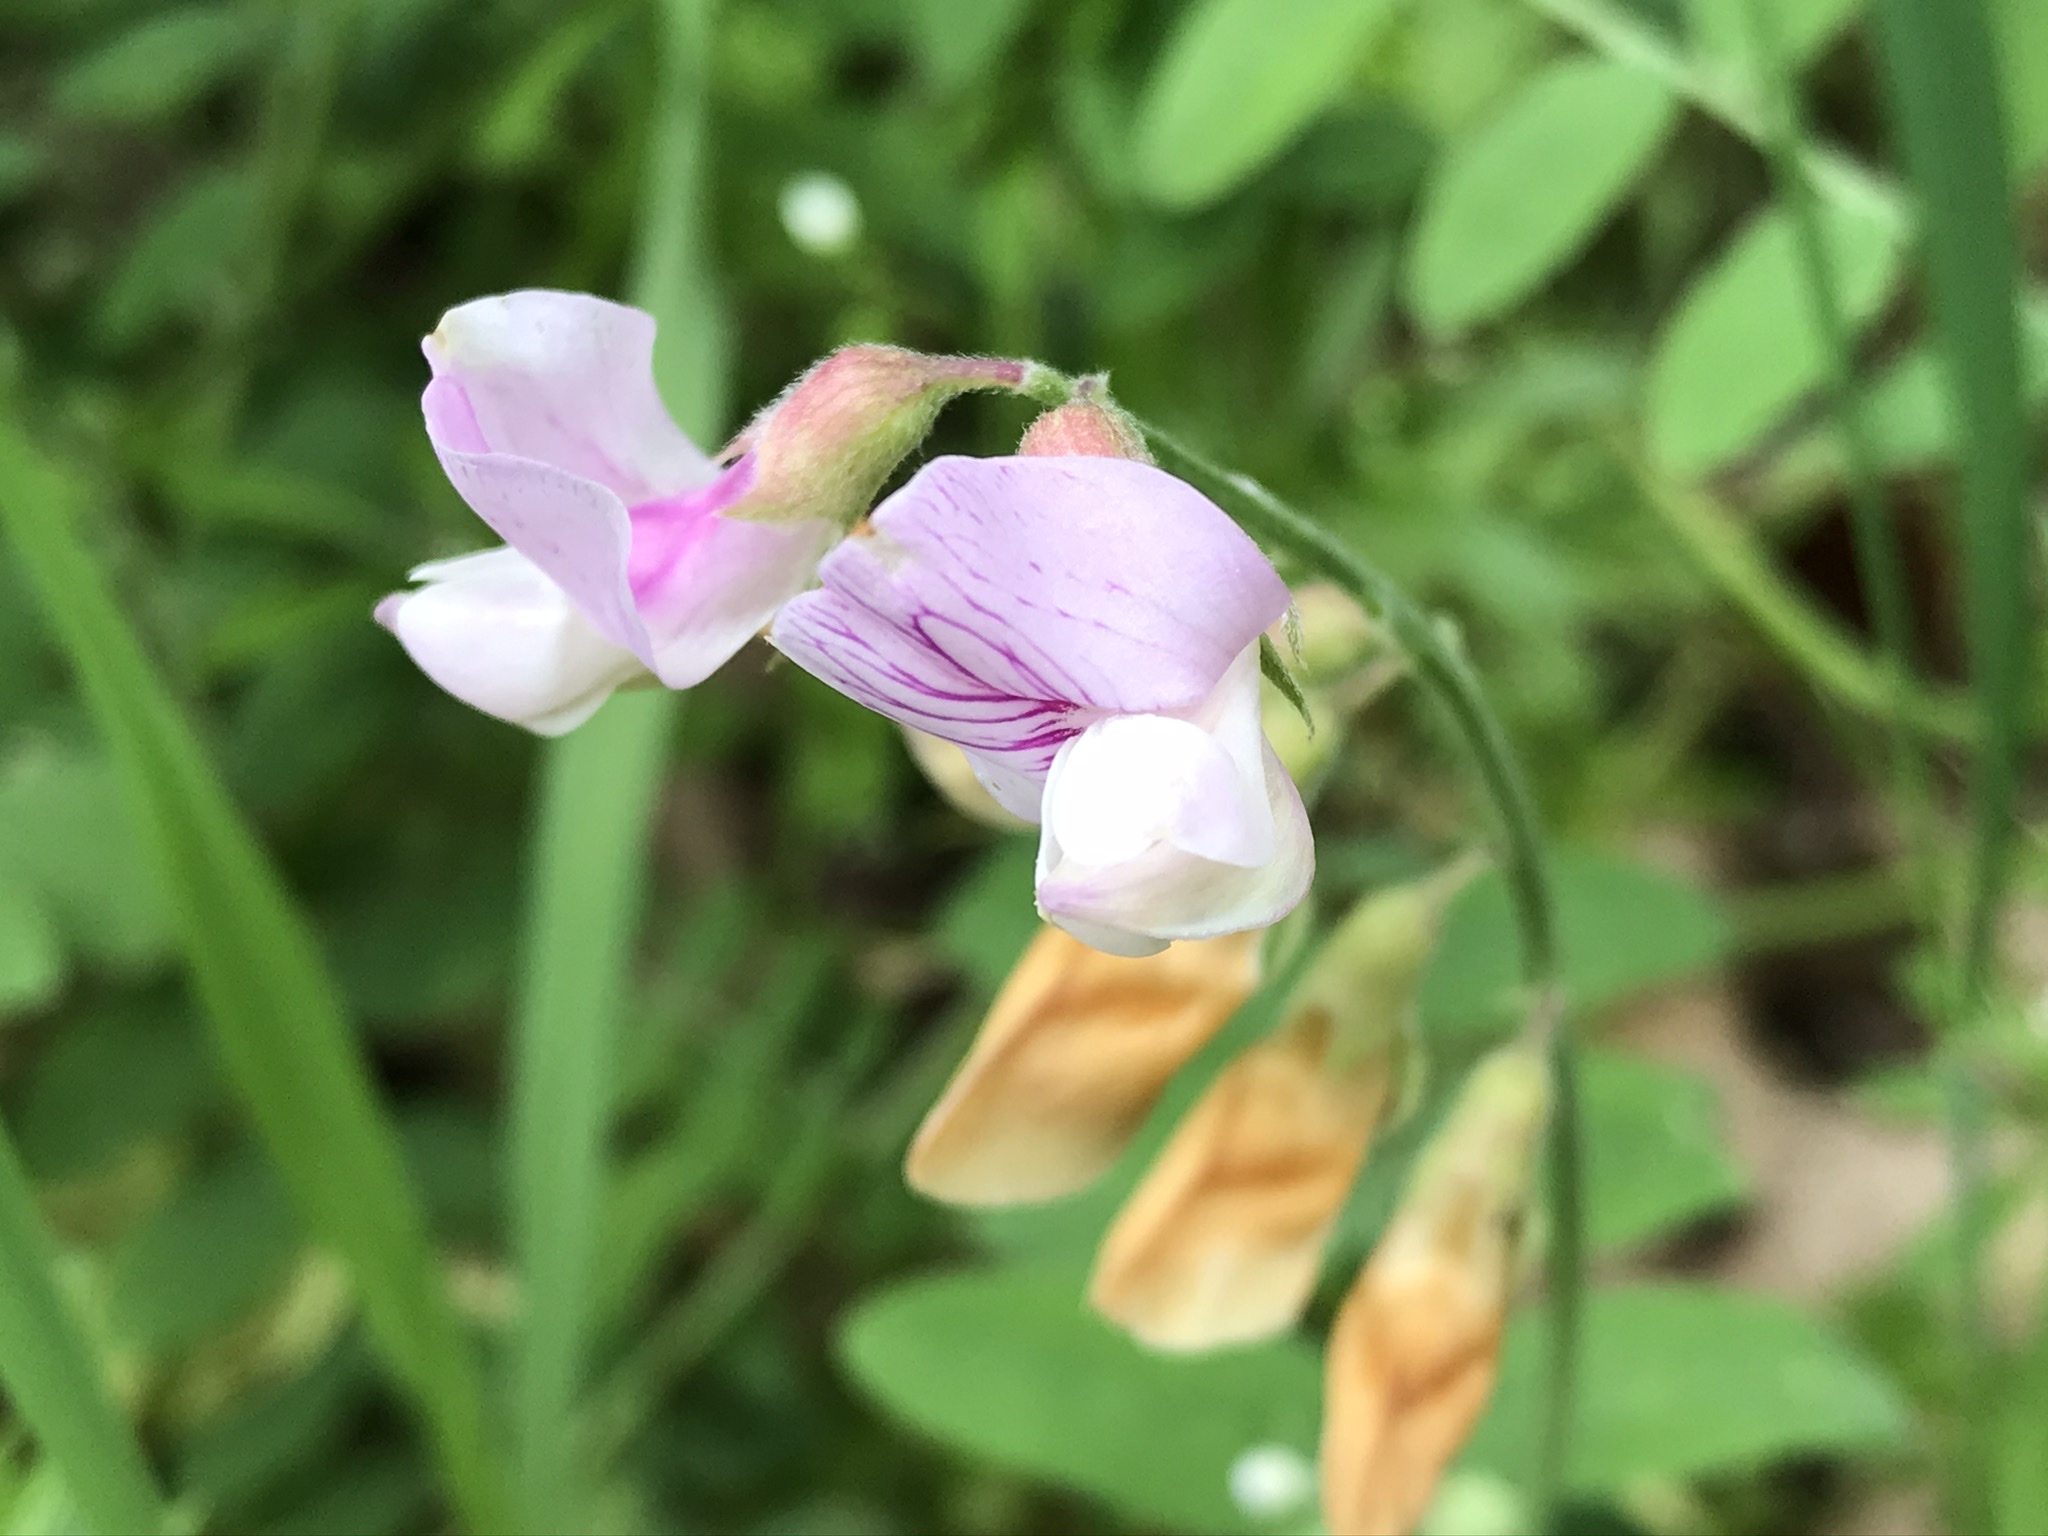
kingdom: Plantae
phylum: Tracheophyta
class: Magnoliopsida
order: Fabales
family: Fabaceae
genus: Lathyrus
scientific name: Lathyrus vestitus
